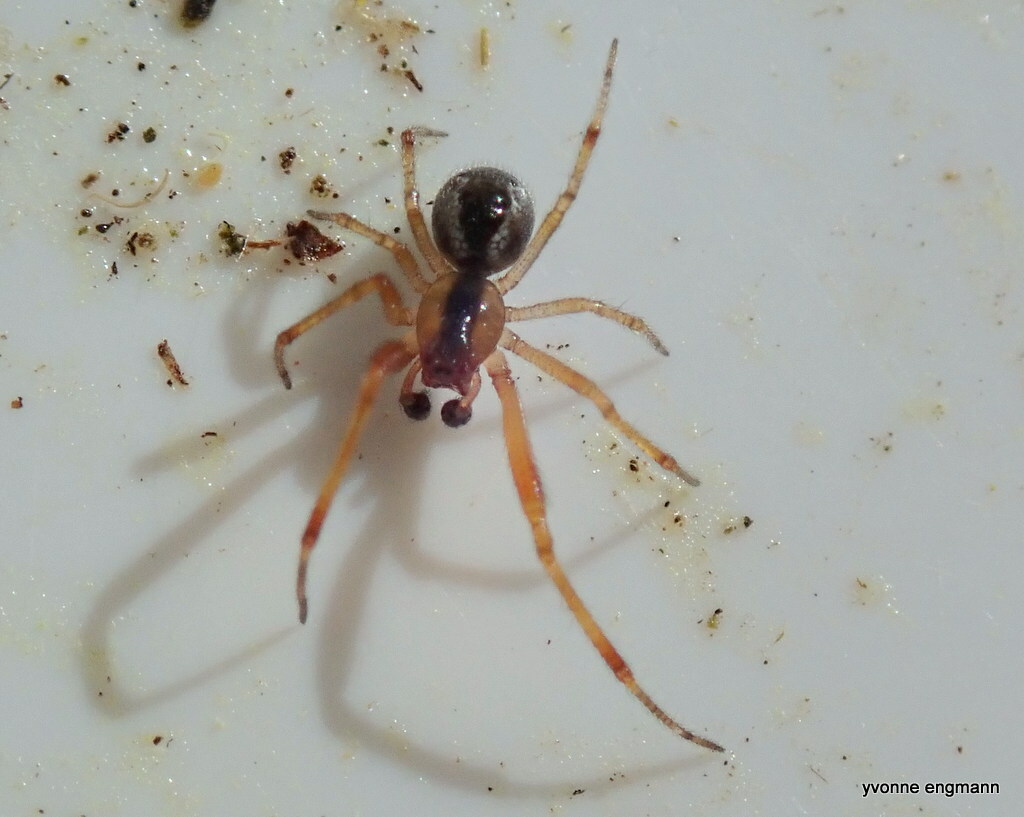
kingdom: Animalia
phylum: Arthropoda
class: Arachnida
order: Araneae
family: Theridiidae
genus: Anelosimus
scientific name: Anelosimus vittatus
